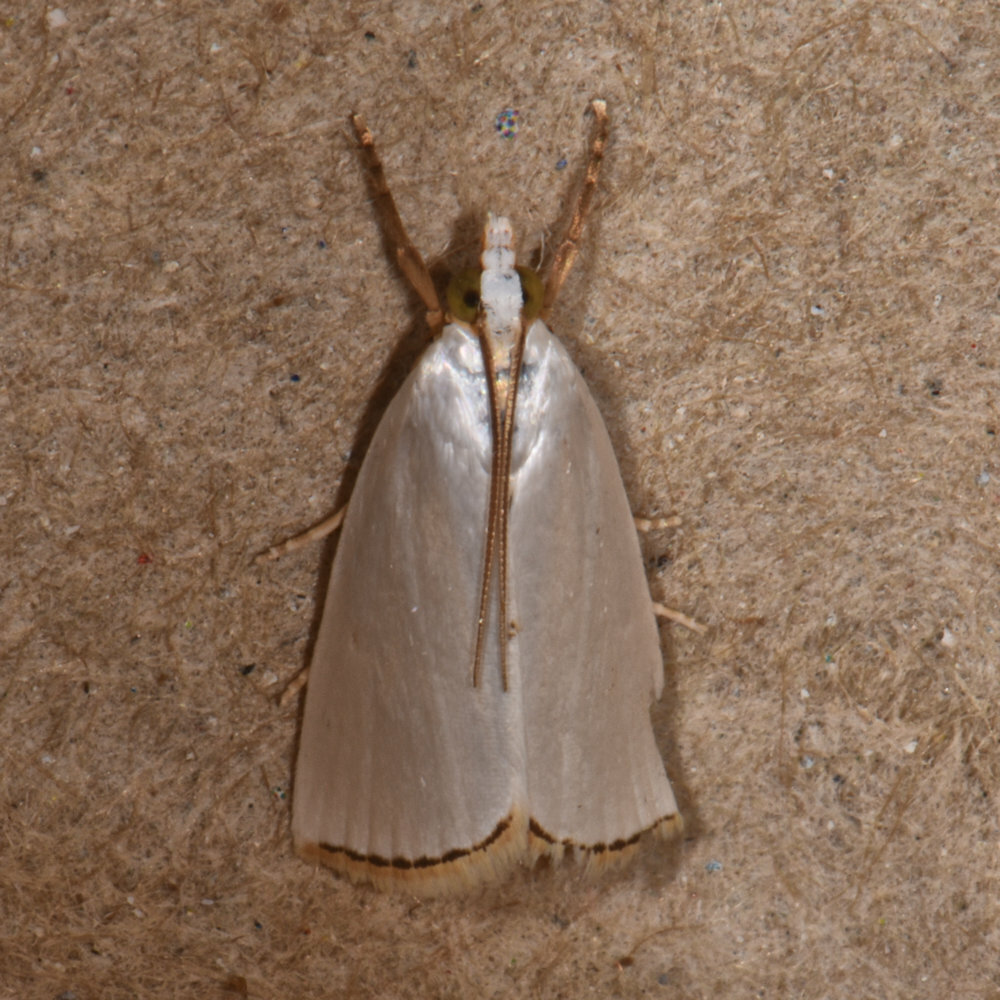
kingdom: Animalia
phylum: Arthropoda
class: Insecta
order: Lepidoptera
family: Crambidae
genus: Argyria
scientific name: Argyria nivalis
